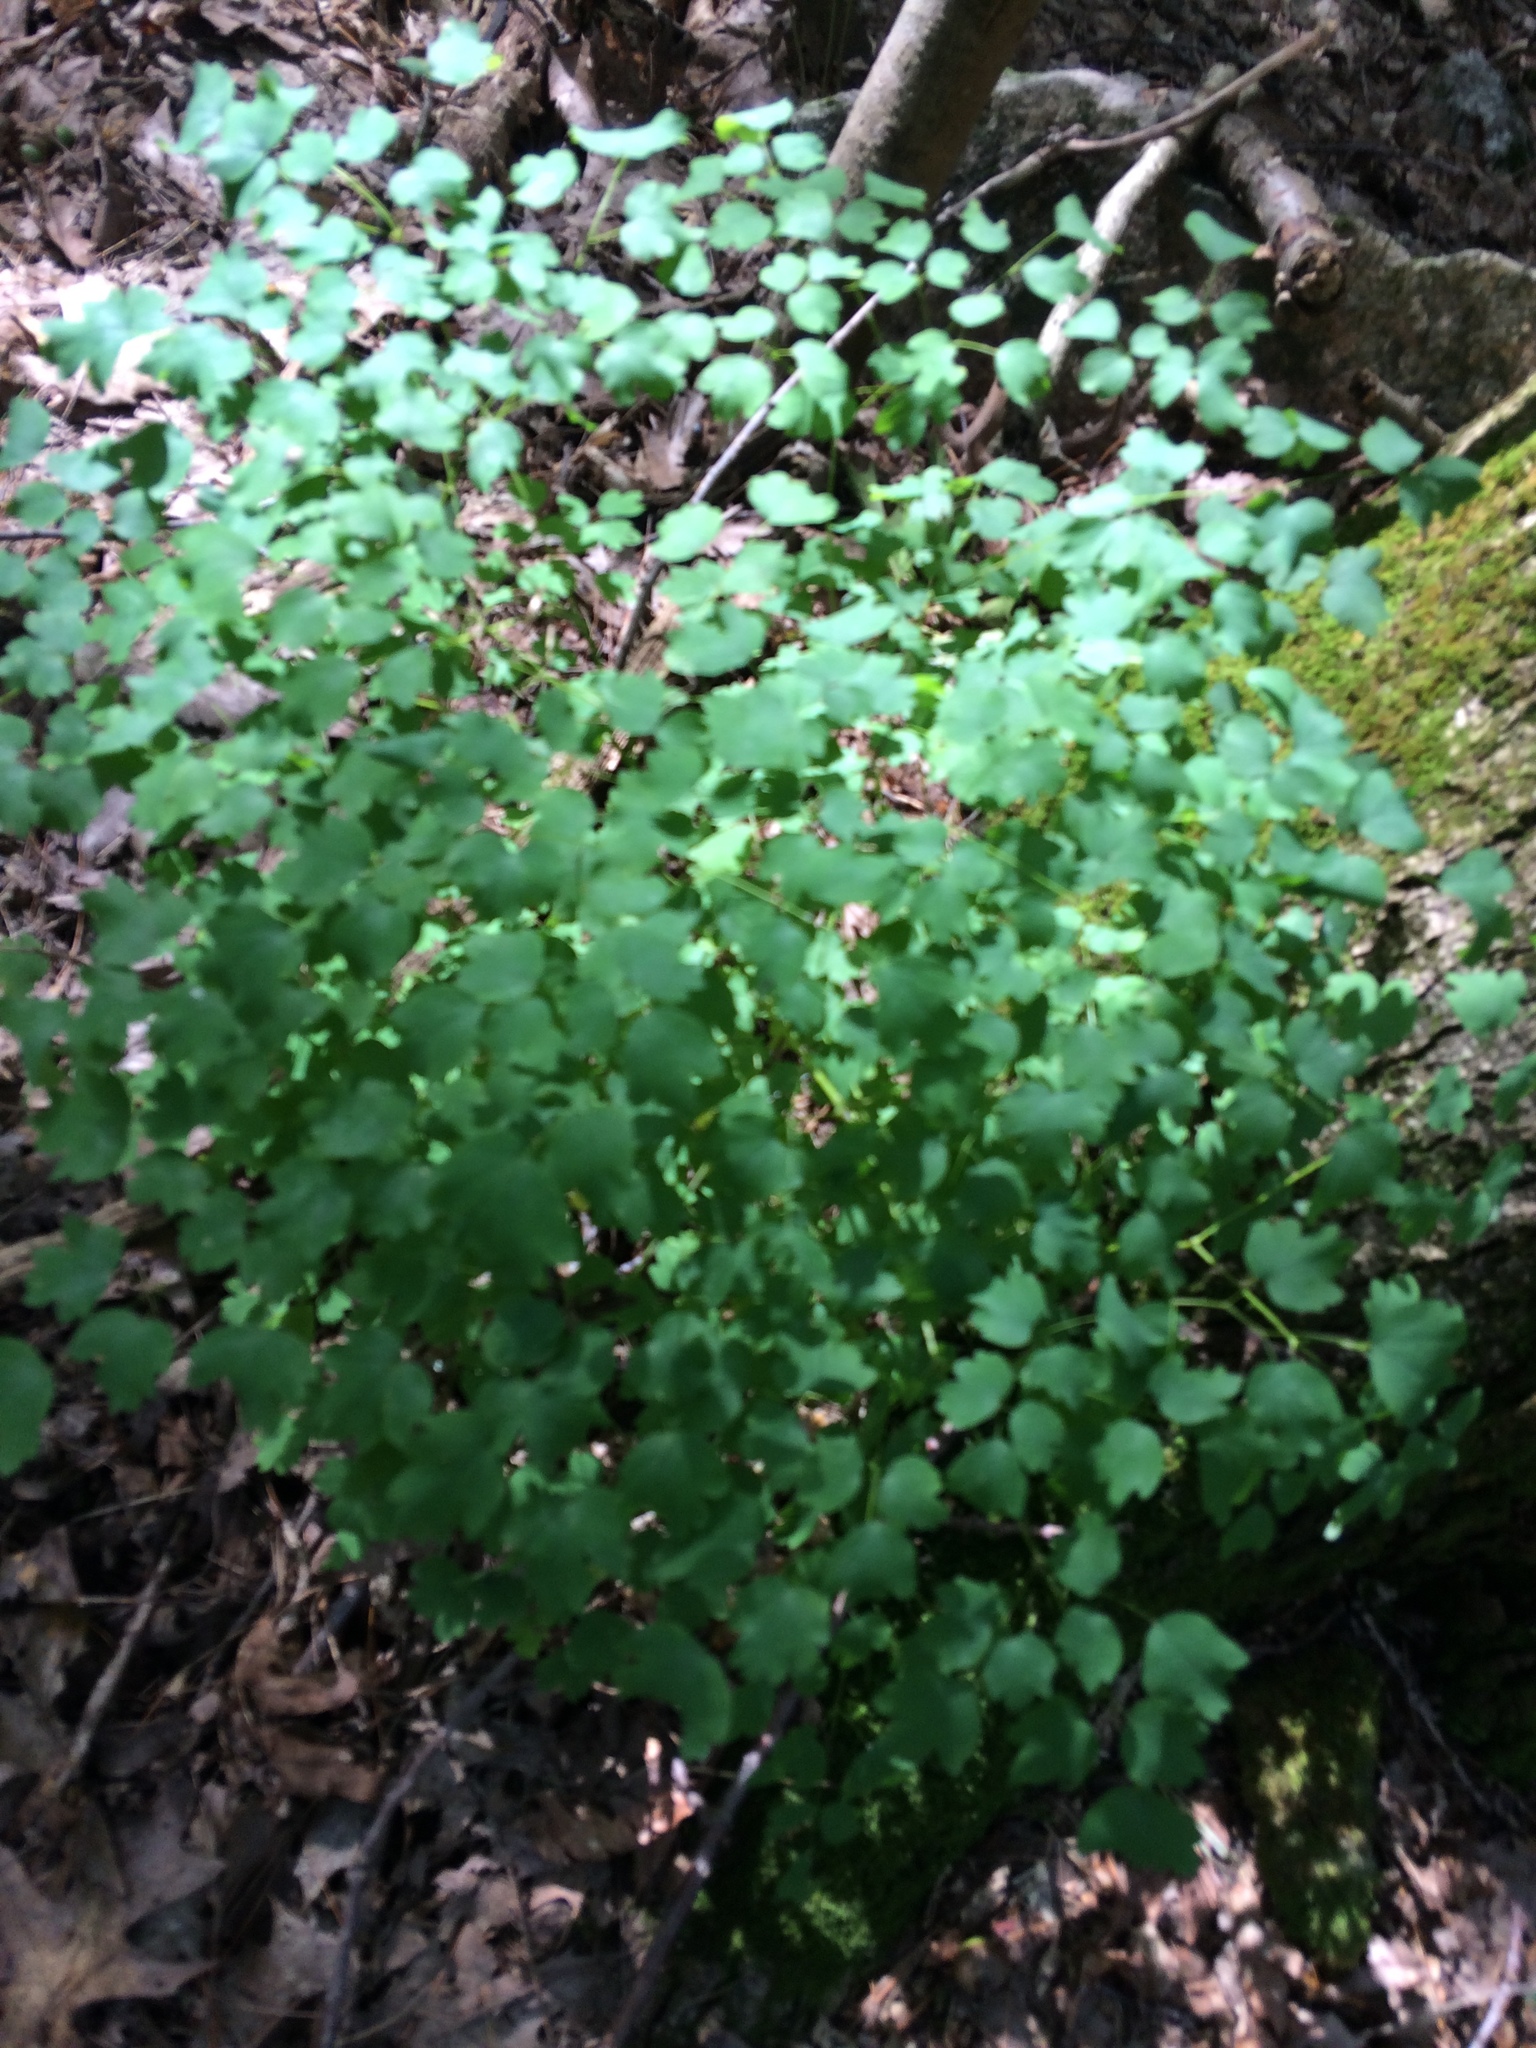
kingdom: Plantae
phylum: Tracheophyta
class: Magnoliopsida
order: Ranunculales
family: Ranunculaceae
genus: Thalictrum
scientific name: Thalictrum dioicum
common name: Early meadow-rue
